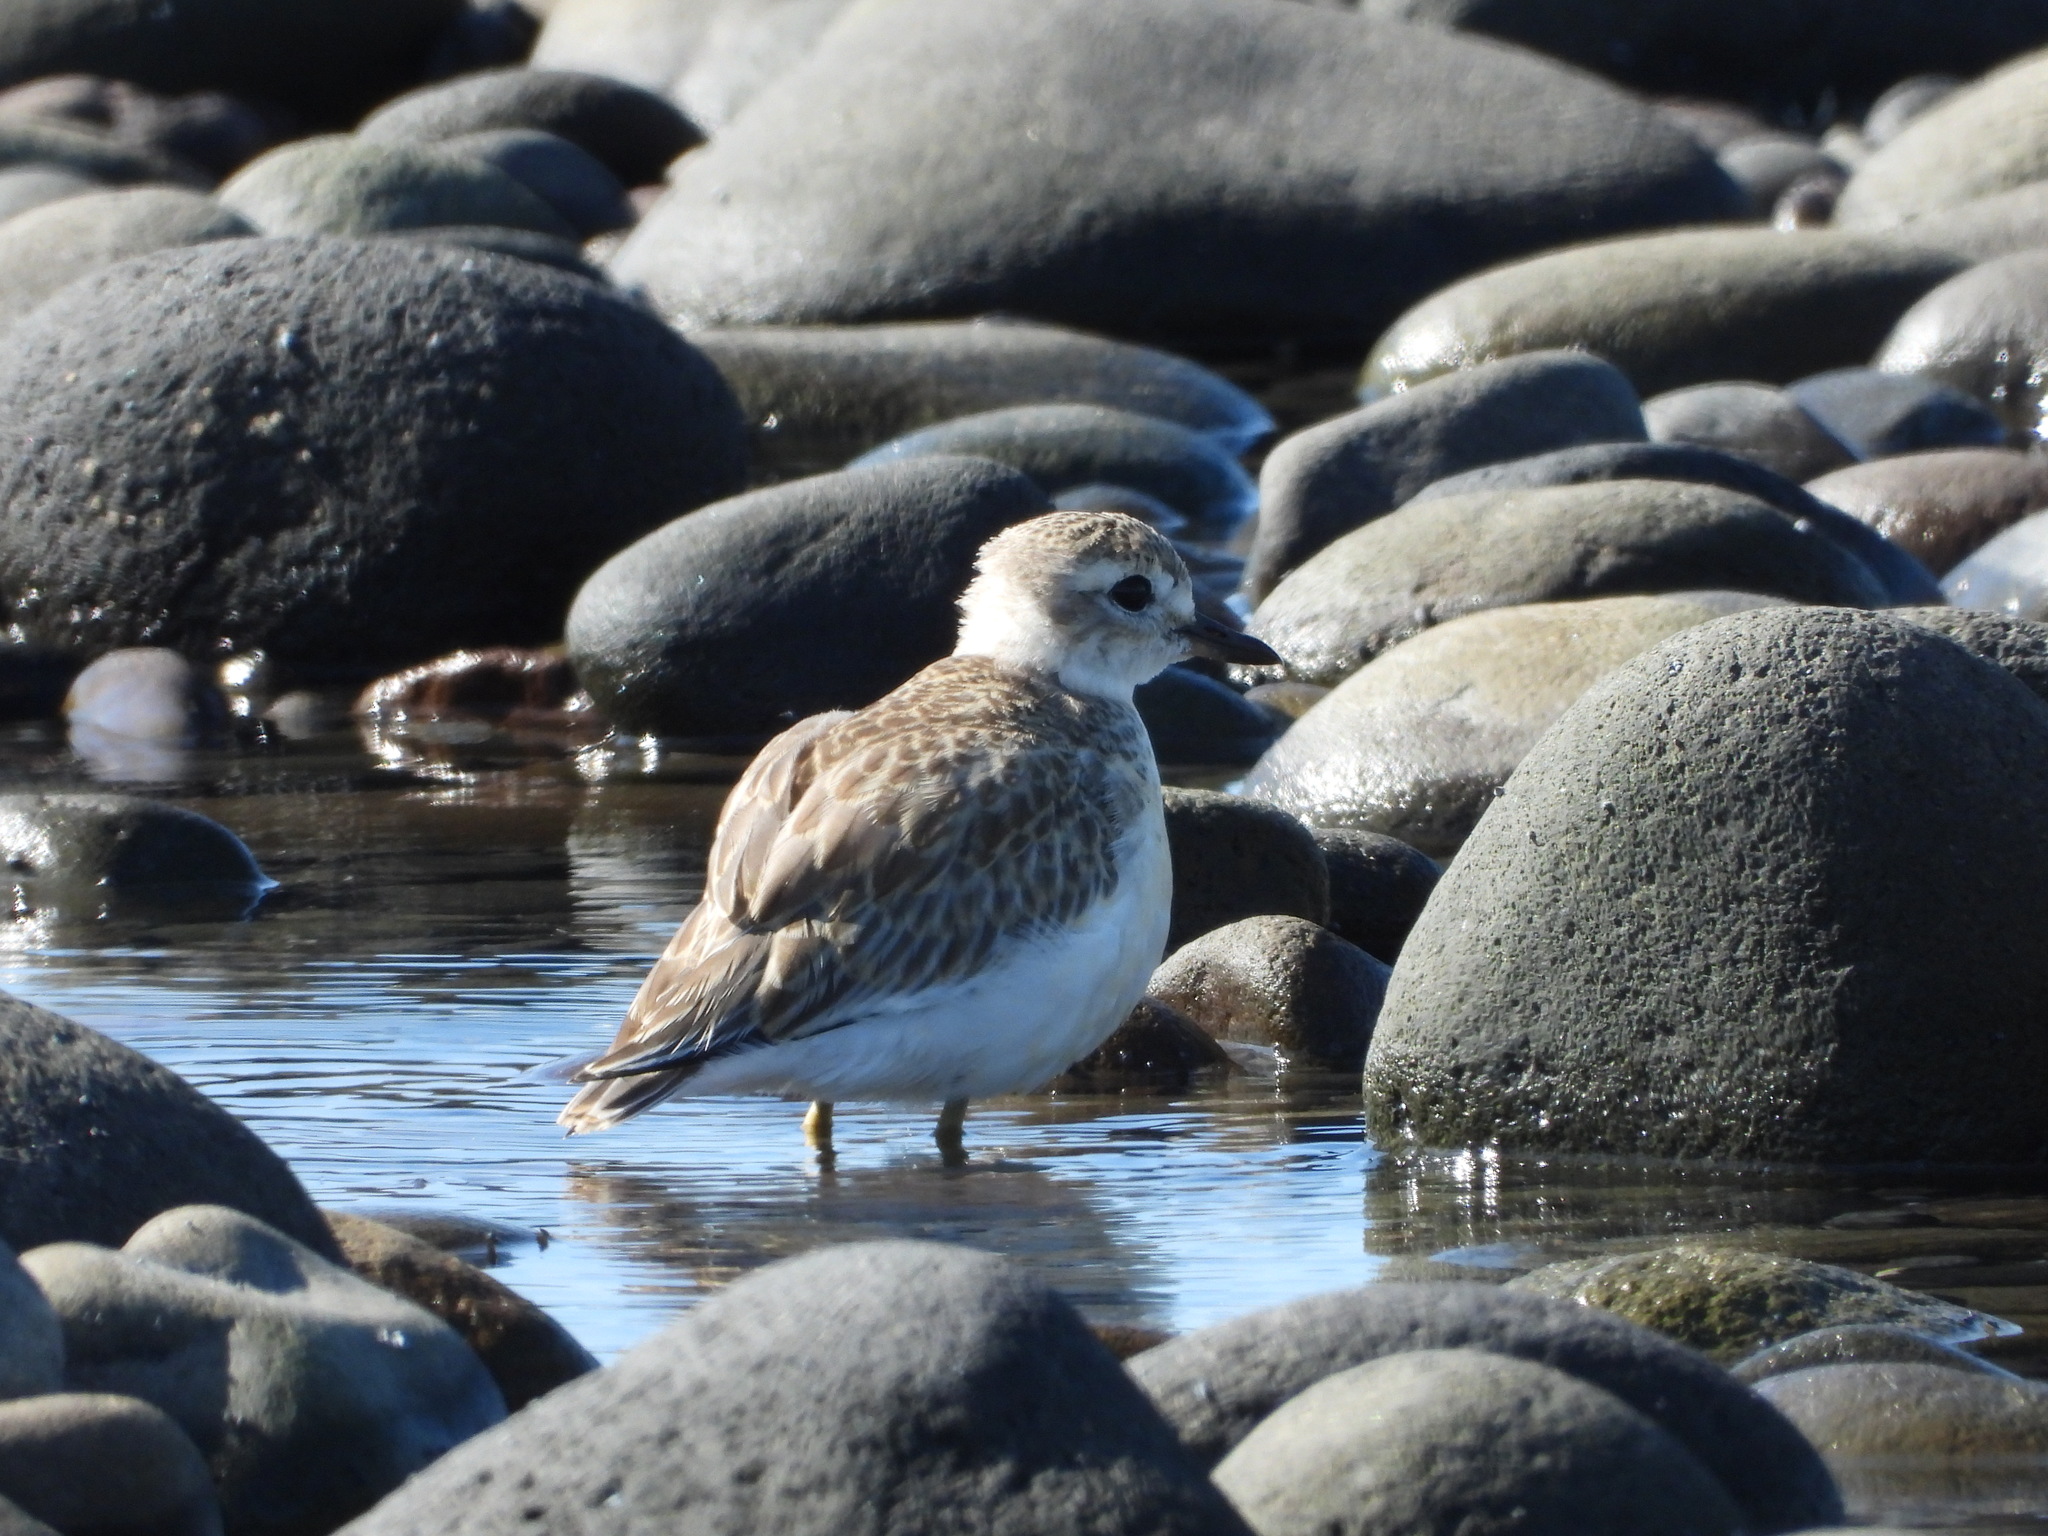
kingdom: Animalia
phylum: Chordata
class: Aves
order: Charadriiformes
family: Charadriidae
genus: Anarhynchus
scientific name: Anarhynchus
